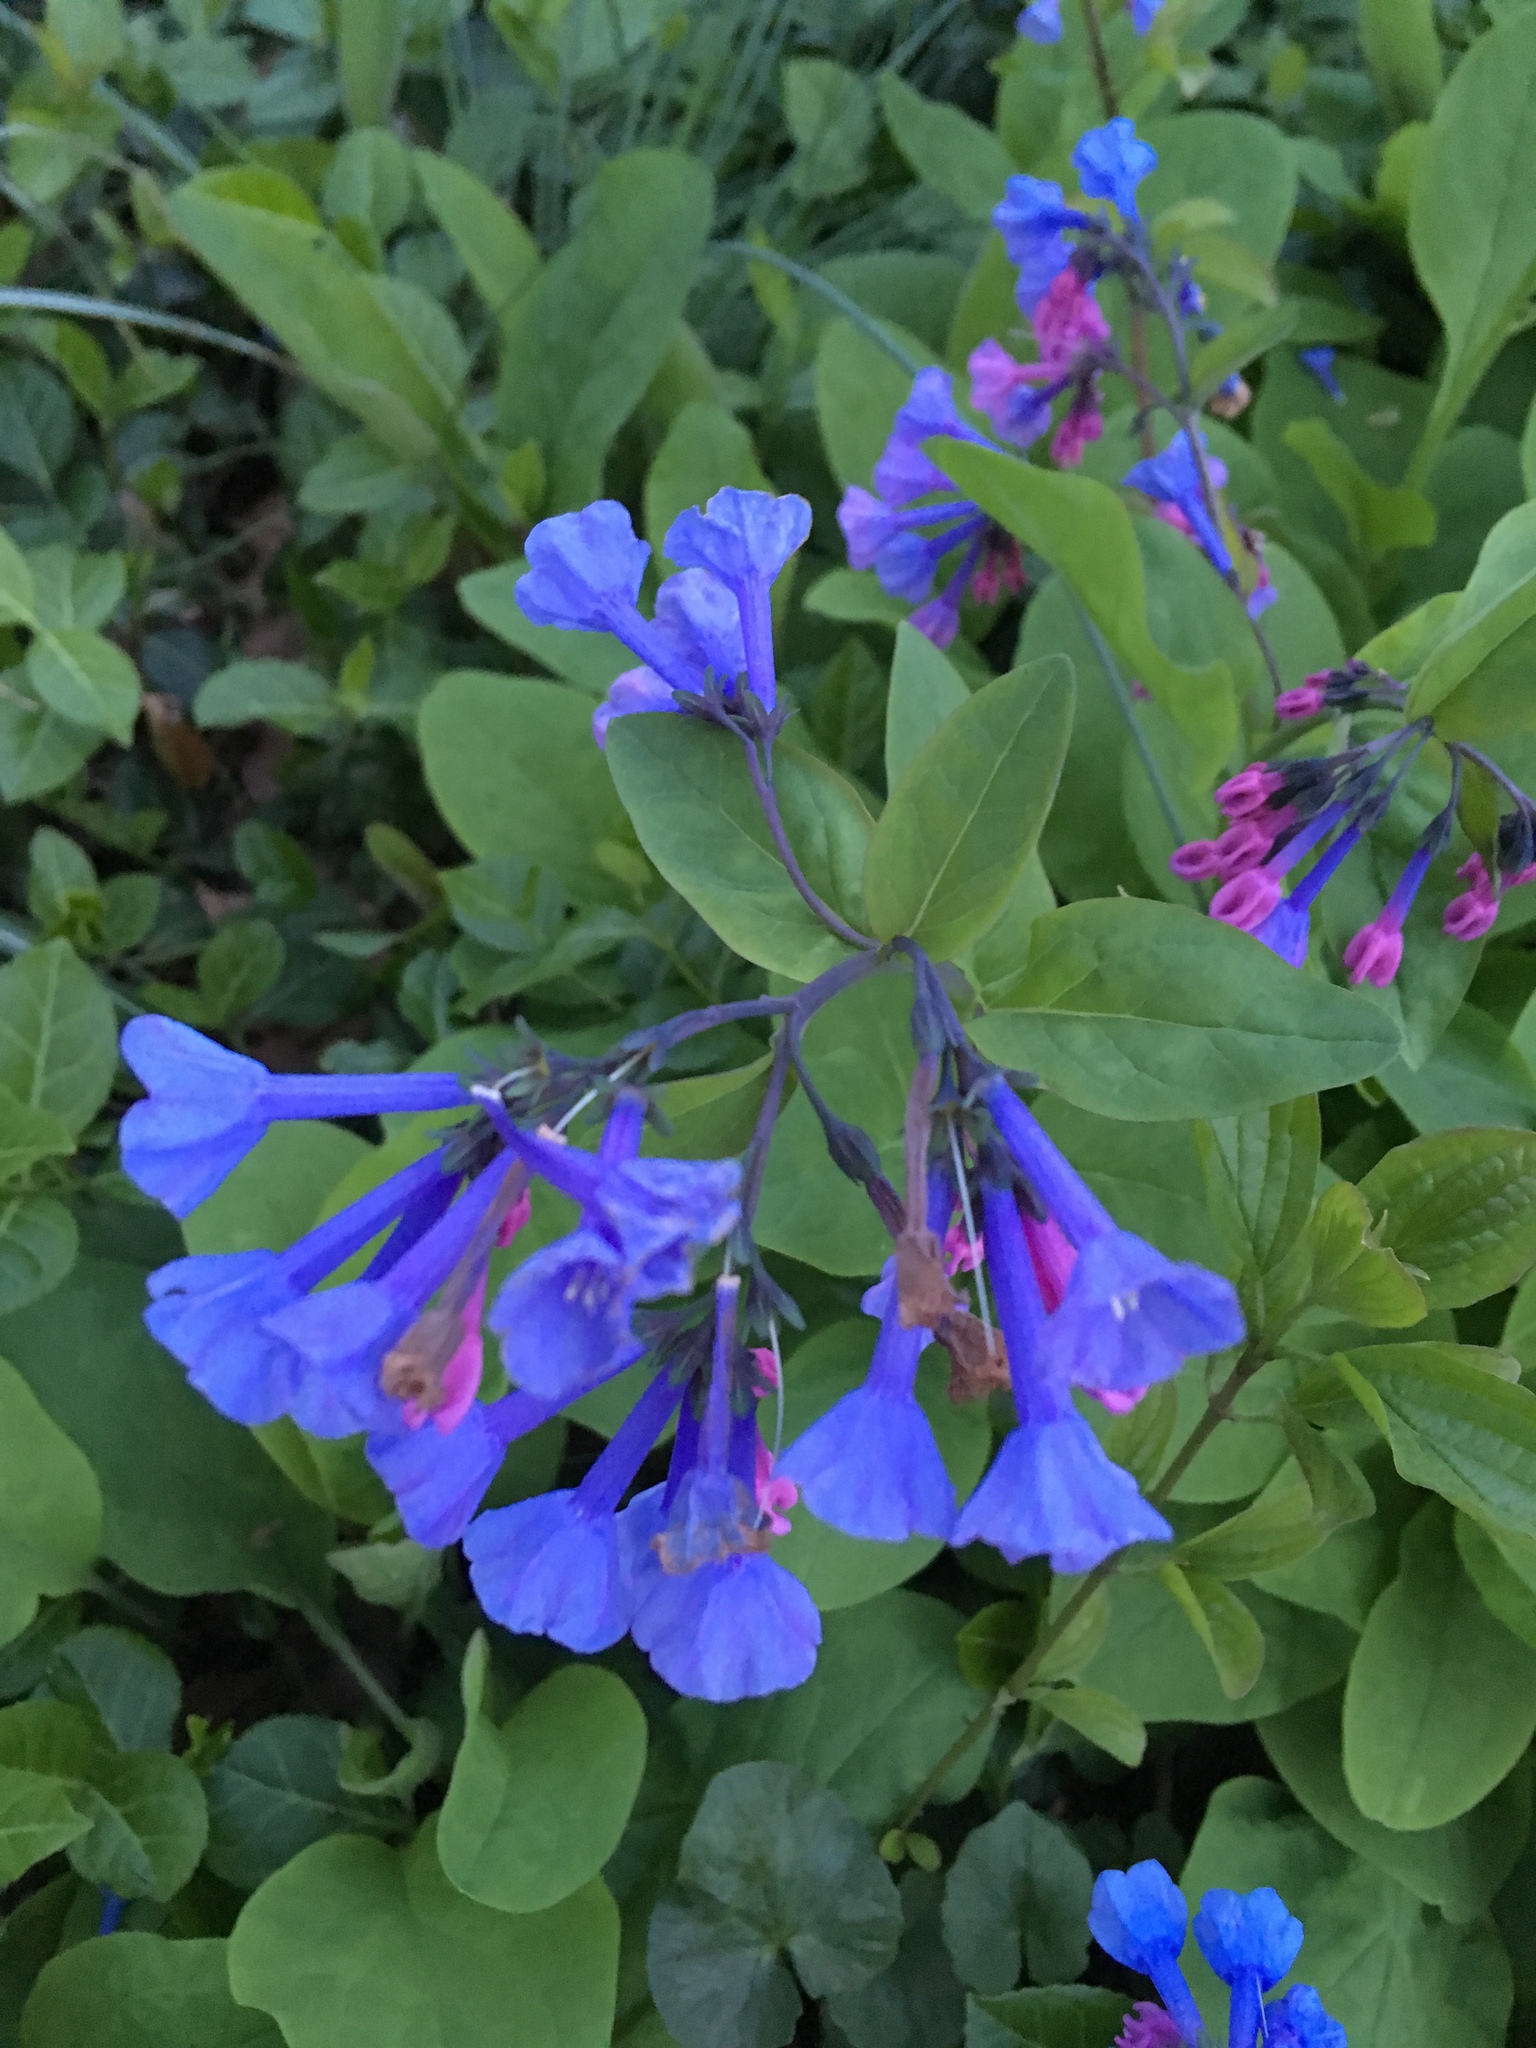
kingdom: Plantae
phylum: Tracheophyta
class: Magnoliopsida
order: Boraginales
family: Boraginaceae
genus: Mertensia
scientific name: Mertensia virginica
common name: Virginia bluebells
